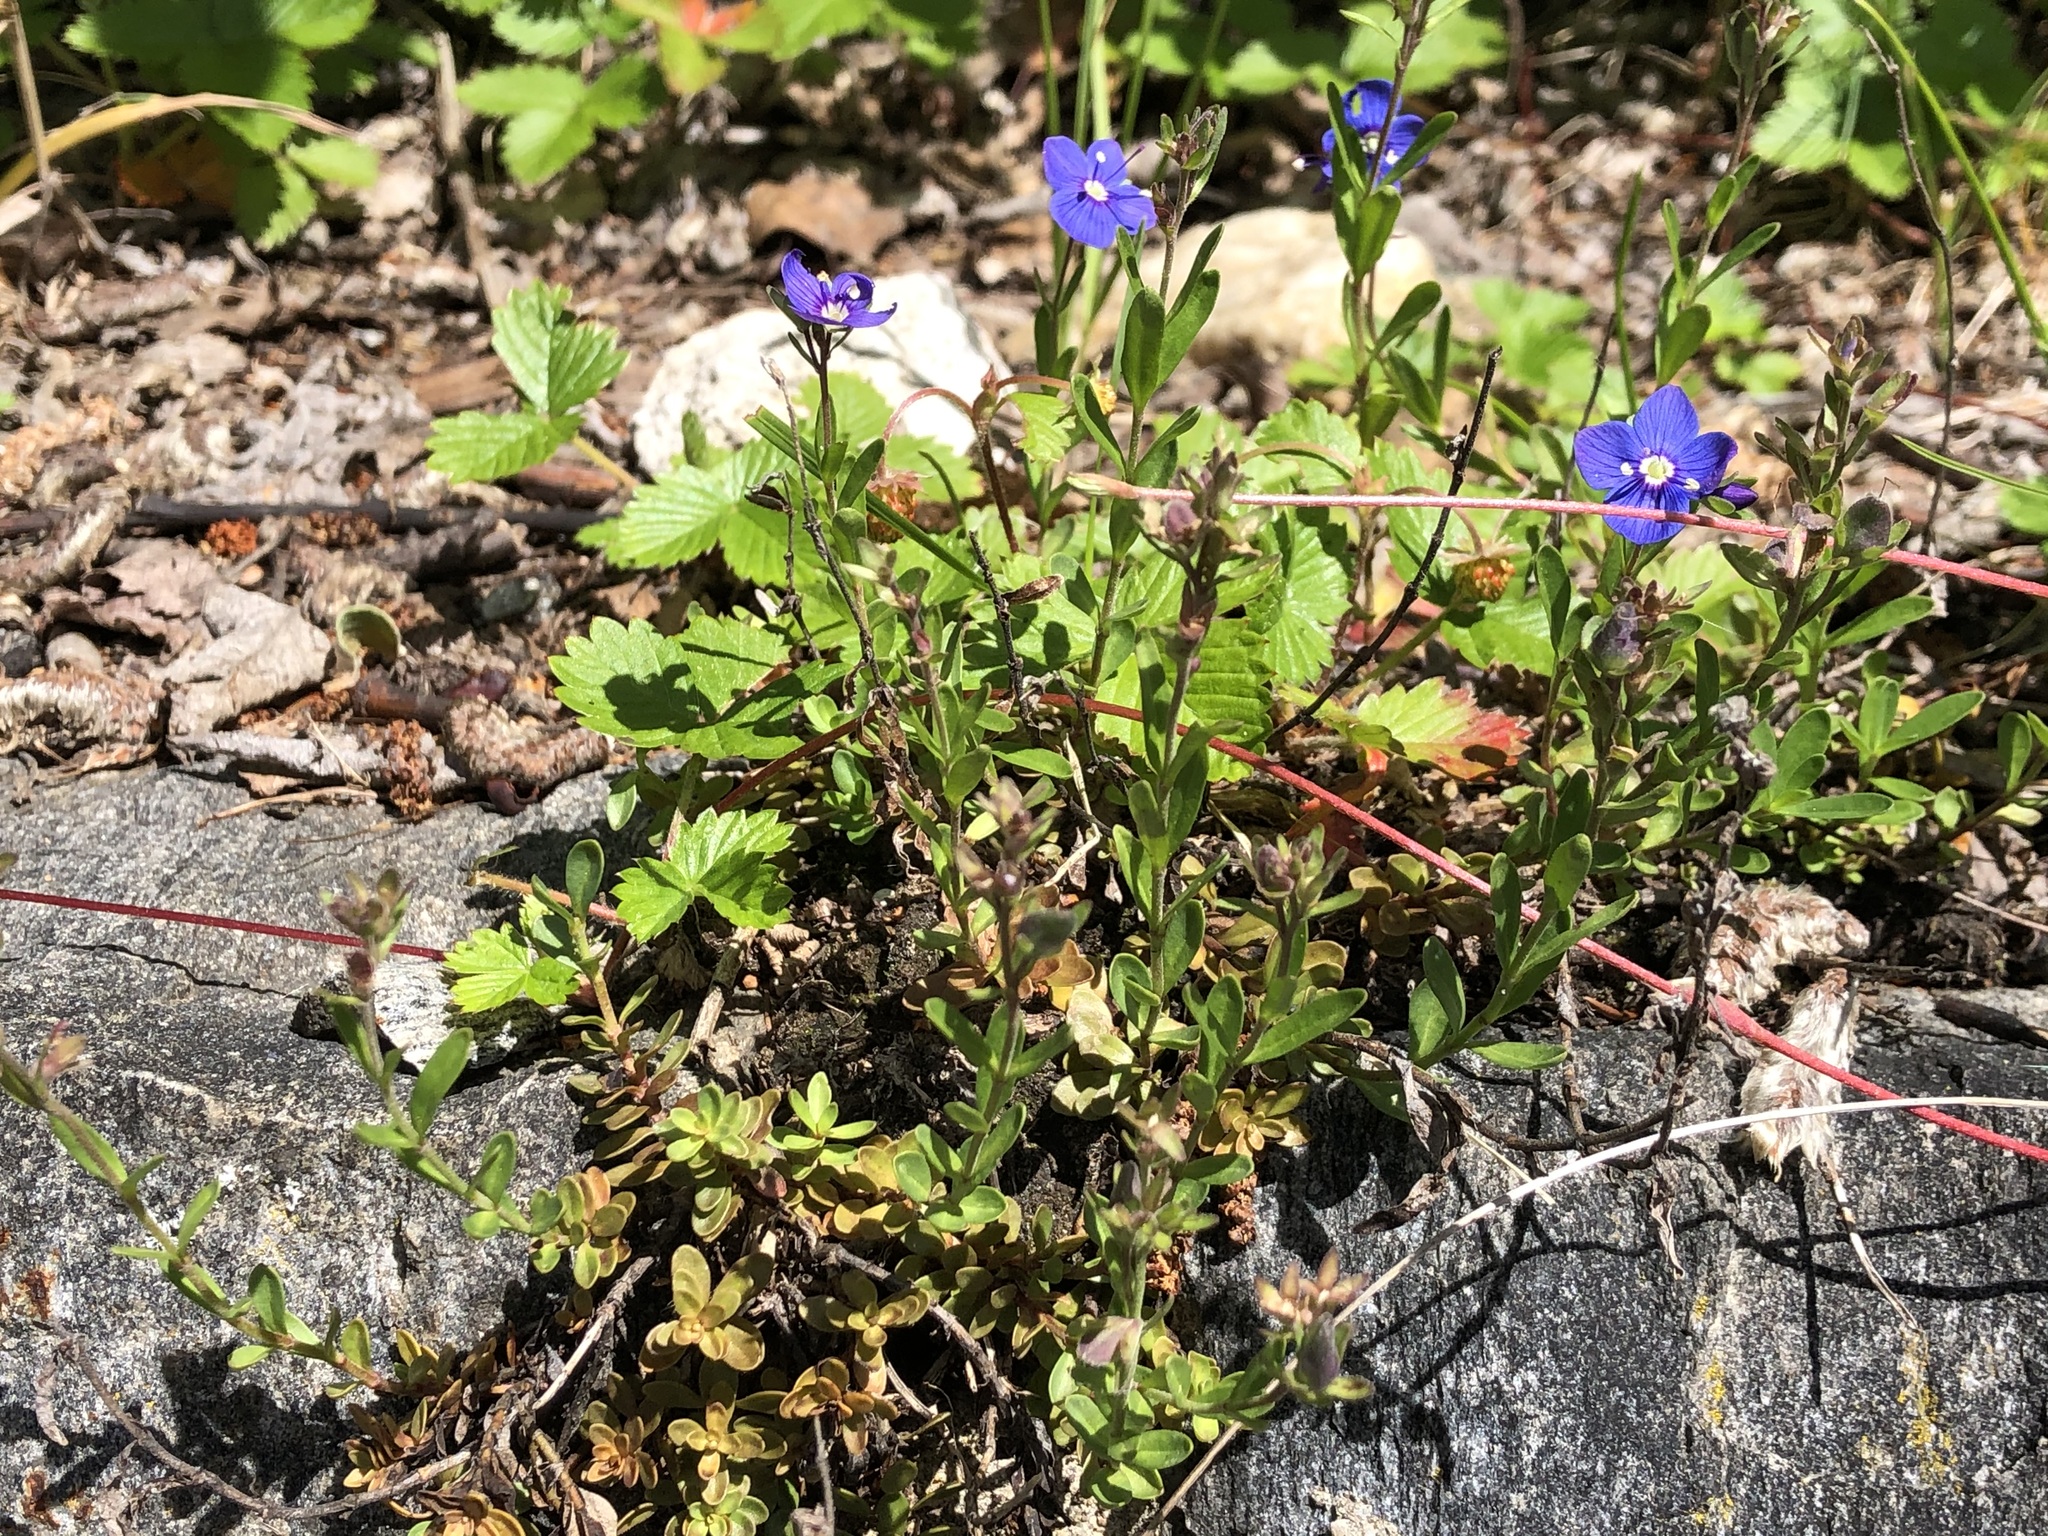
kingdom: Plantae
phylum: Tracheophyta
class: Magnoliopsida
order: Lamiales
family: Plantaginaceae
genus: Veronica
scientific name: Veronica fruticans
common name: Rock speedwell
